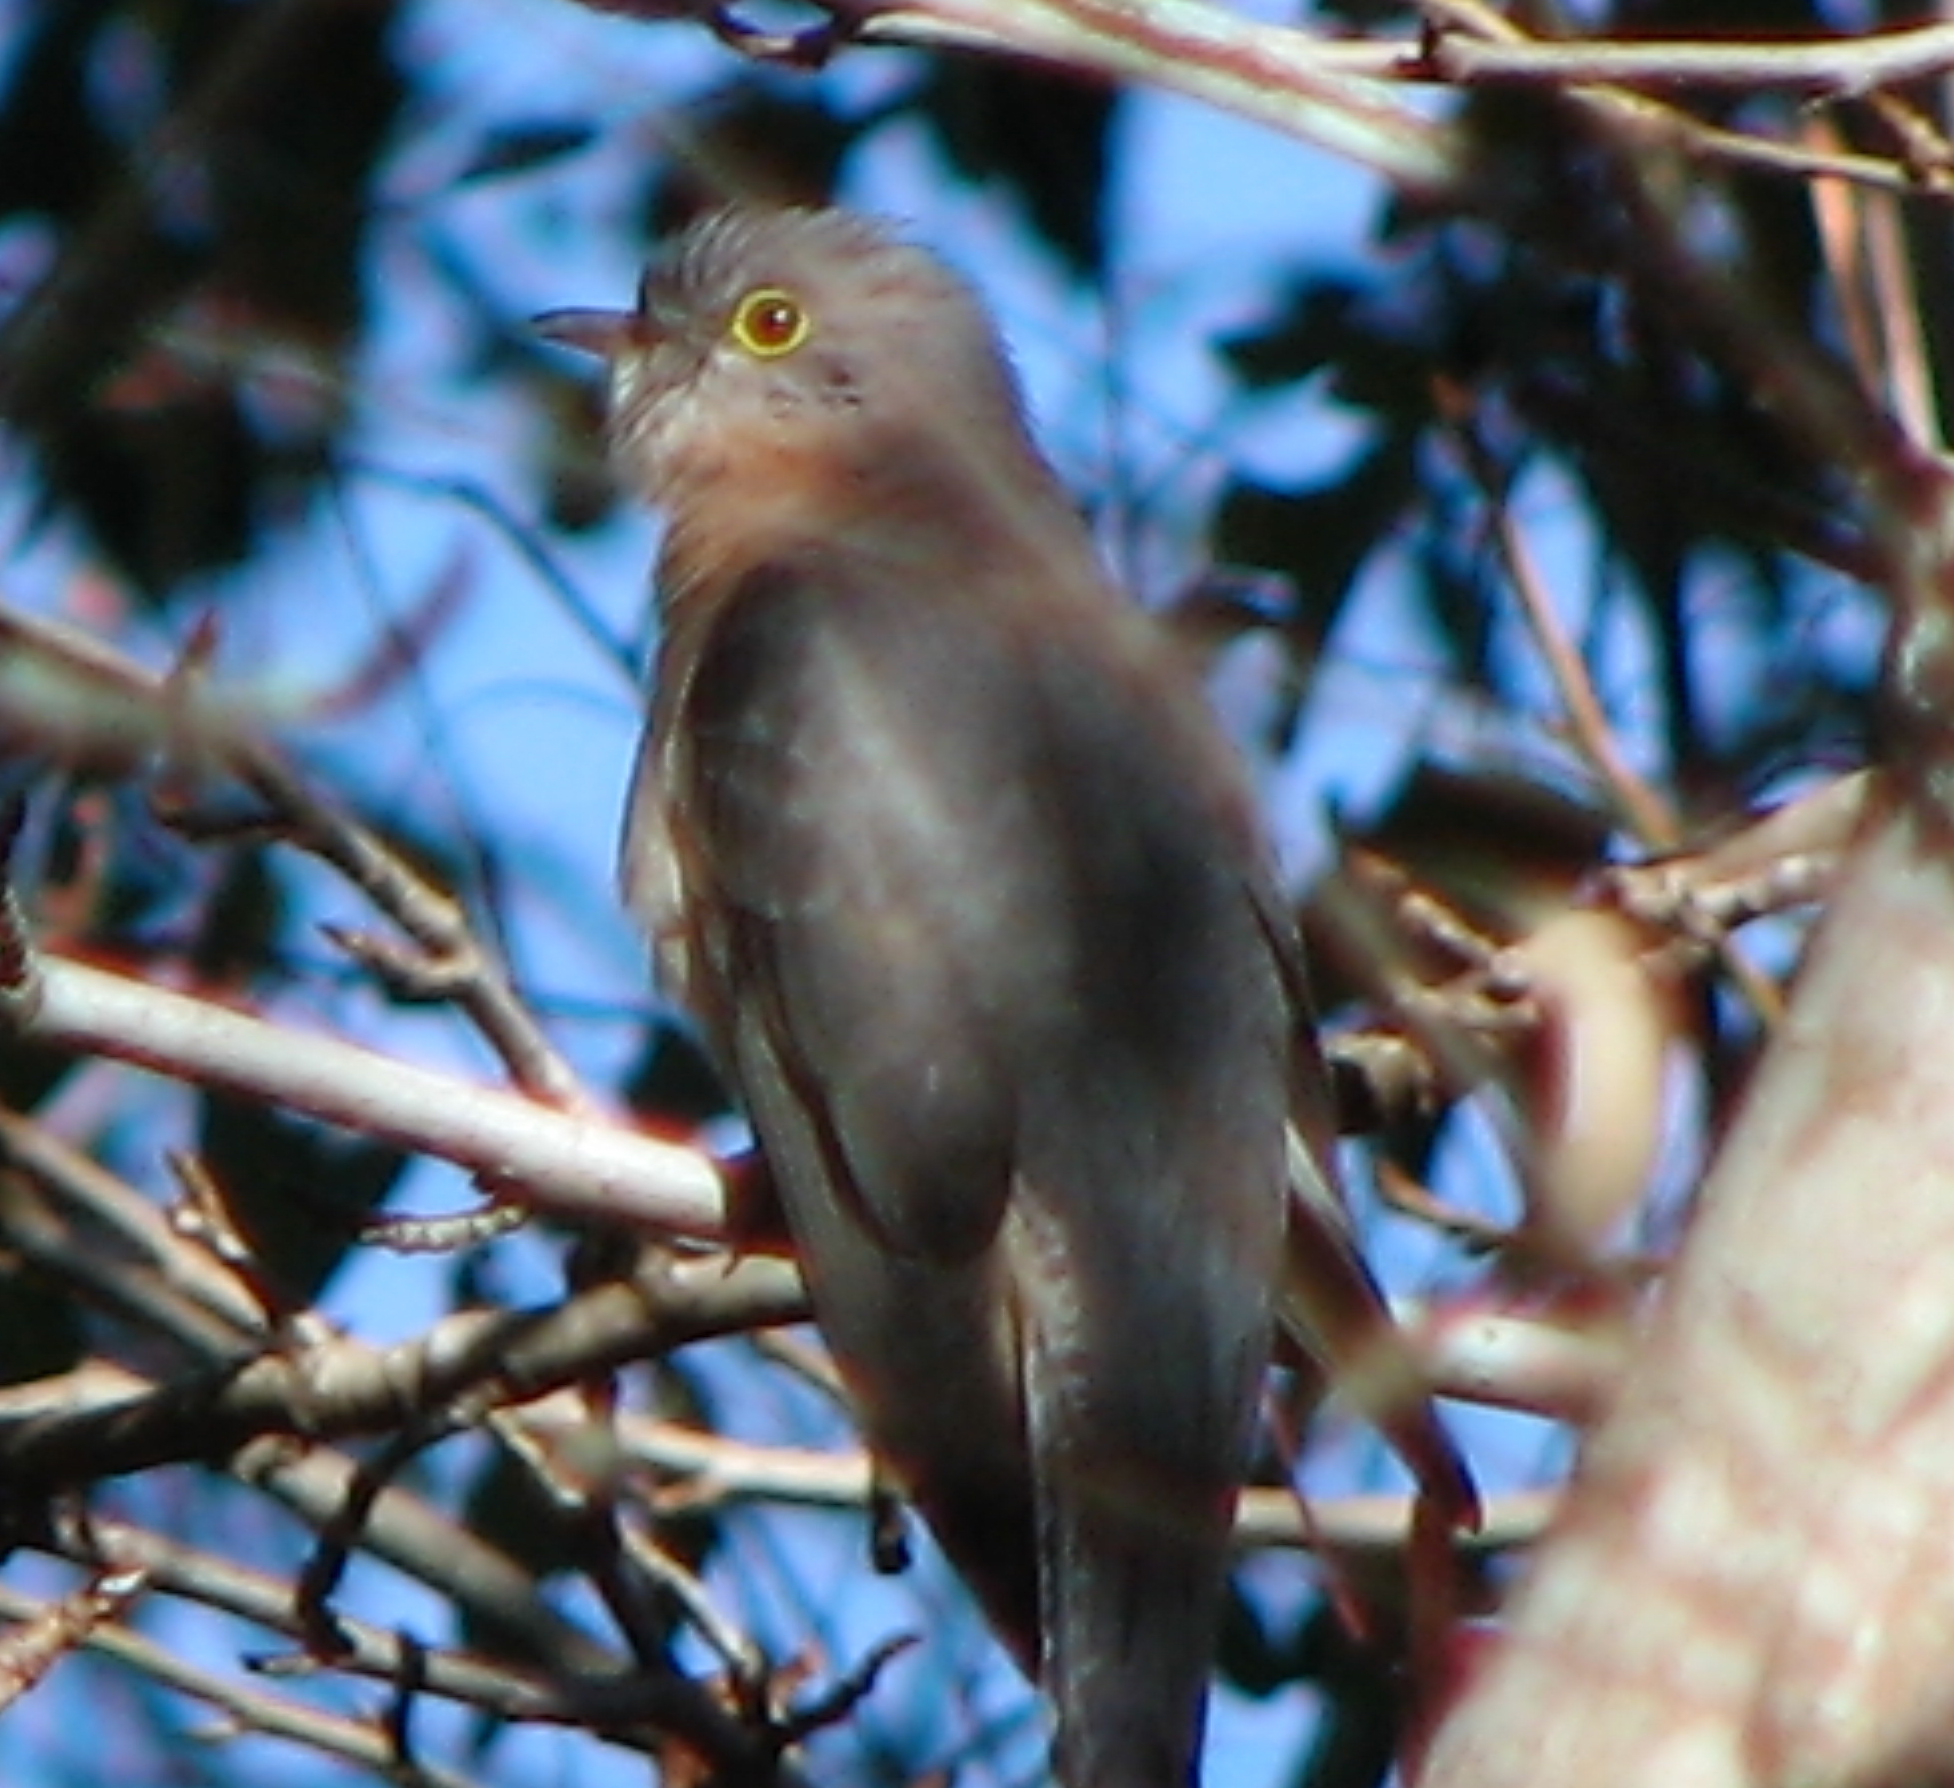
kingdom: Animalia
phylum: Chordata
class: Aves
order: Cuculiformes
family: Cuculidae
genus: Cacomantis
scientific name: Cacomantis flabelliformis
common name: Fan-tailed cuckoo
